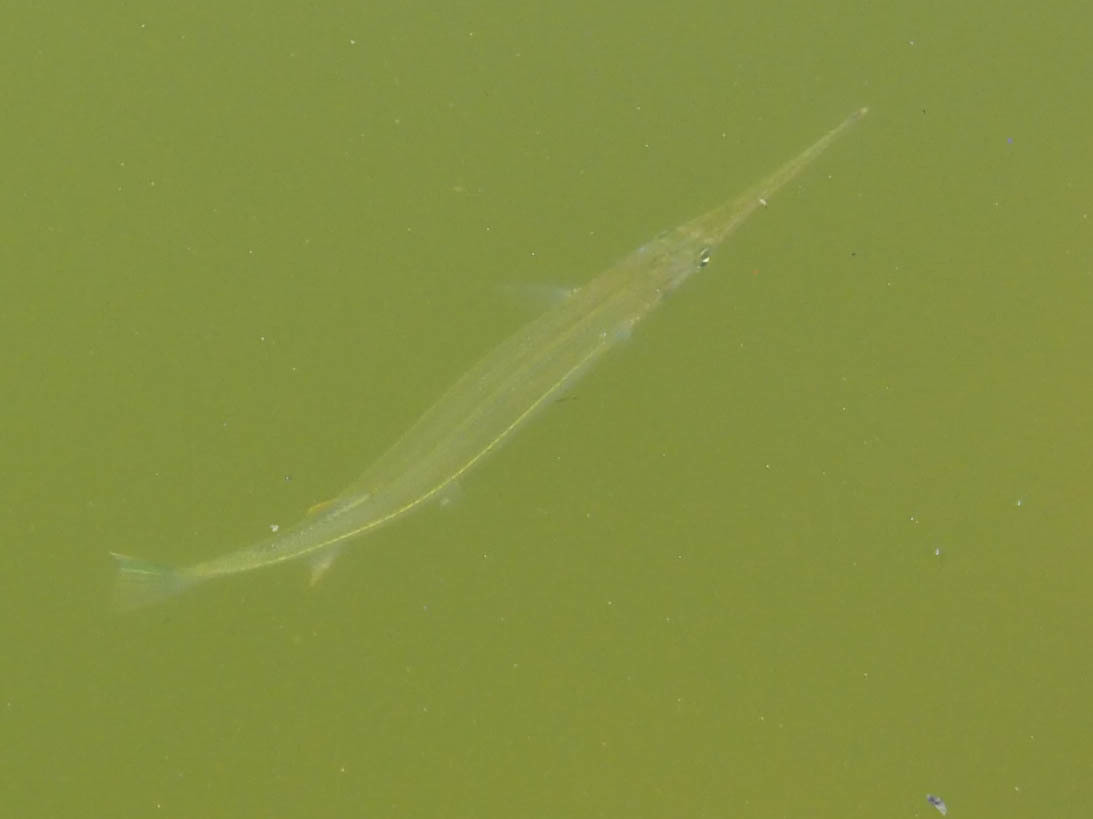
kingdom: Animalia
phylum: Chordata
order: Beloniformes
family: Belonidae
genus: Strongylura
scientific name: Strongylura notata
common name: Redfin needlefish
